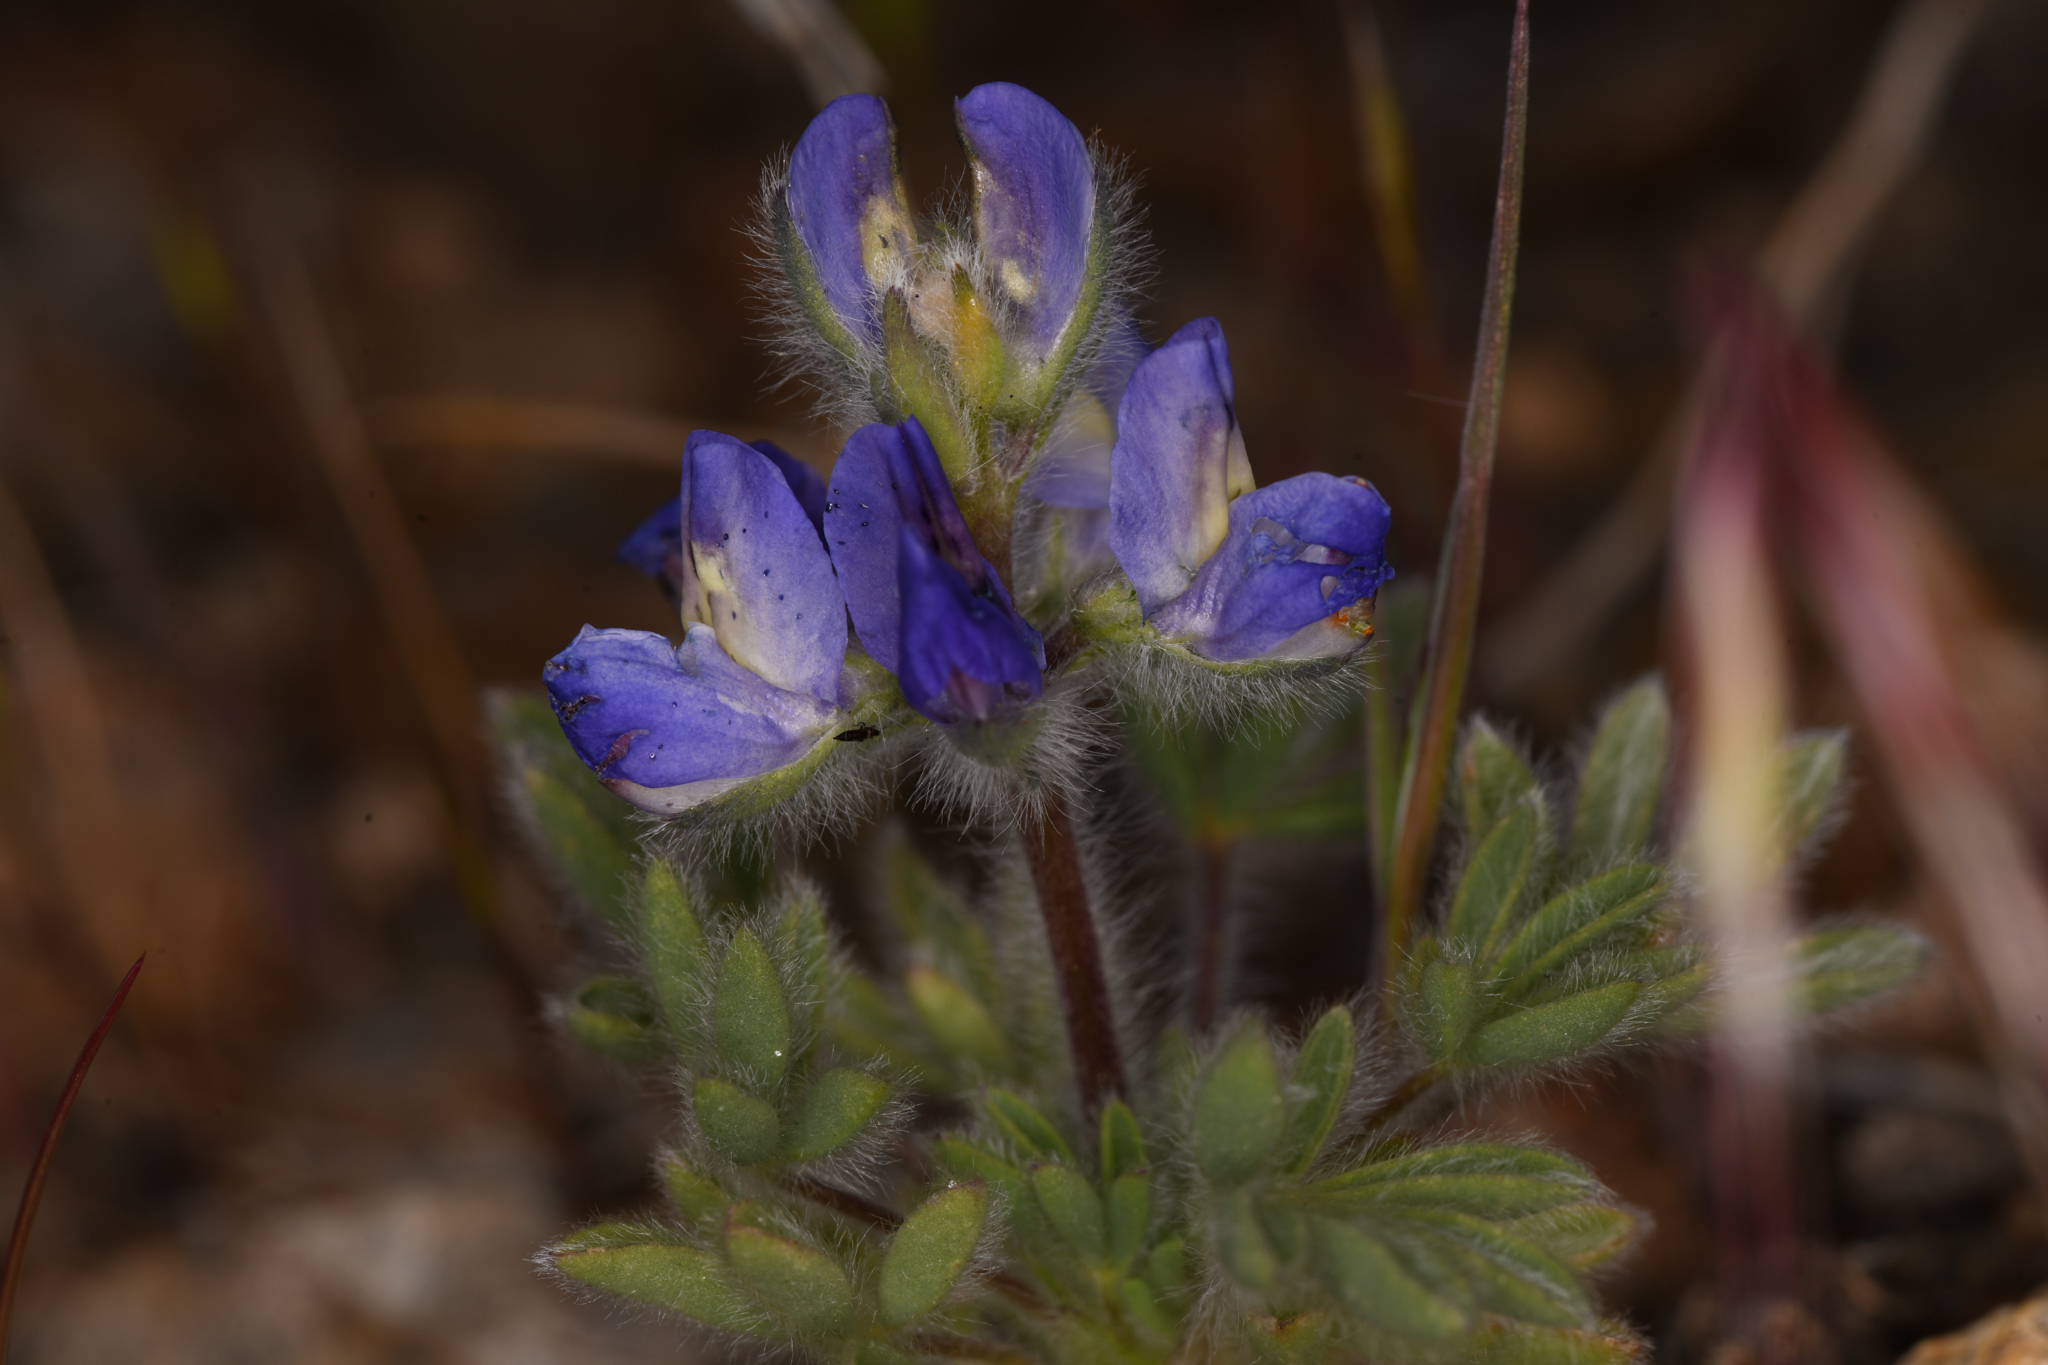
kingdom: Plantae
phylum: Tracheophyta
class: Magnoliopsida
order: Fabales
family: Fabaceae
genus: Lupinus
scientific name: Lupinus malacophyllus
